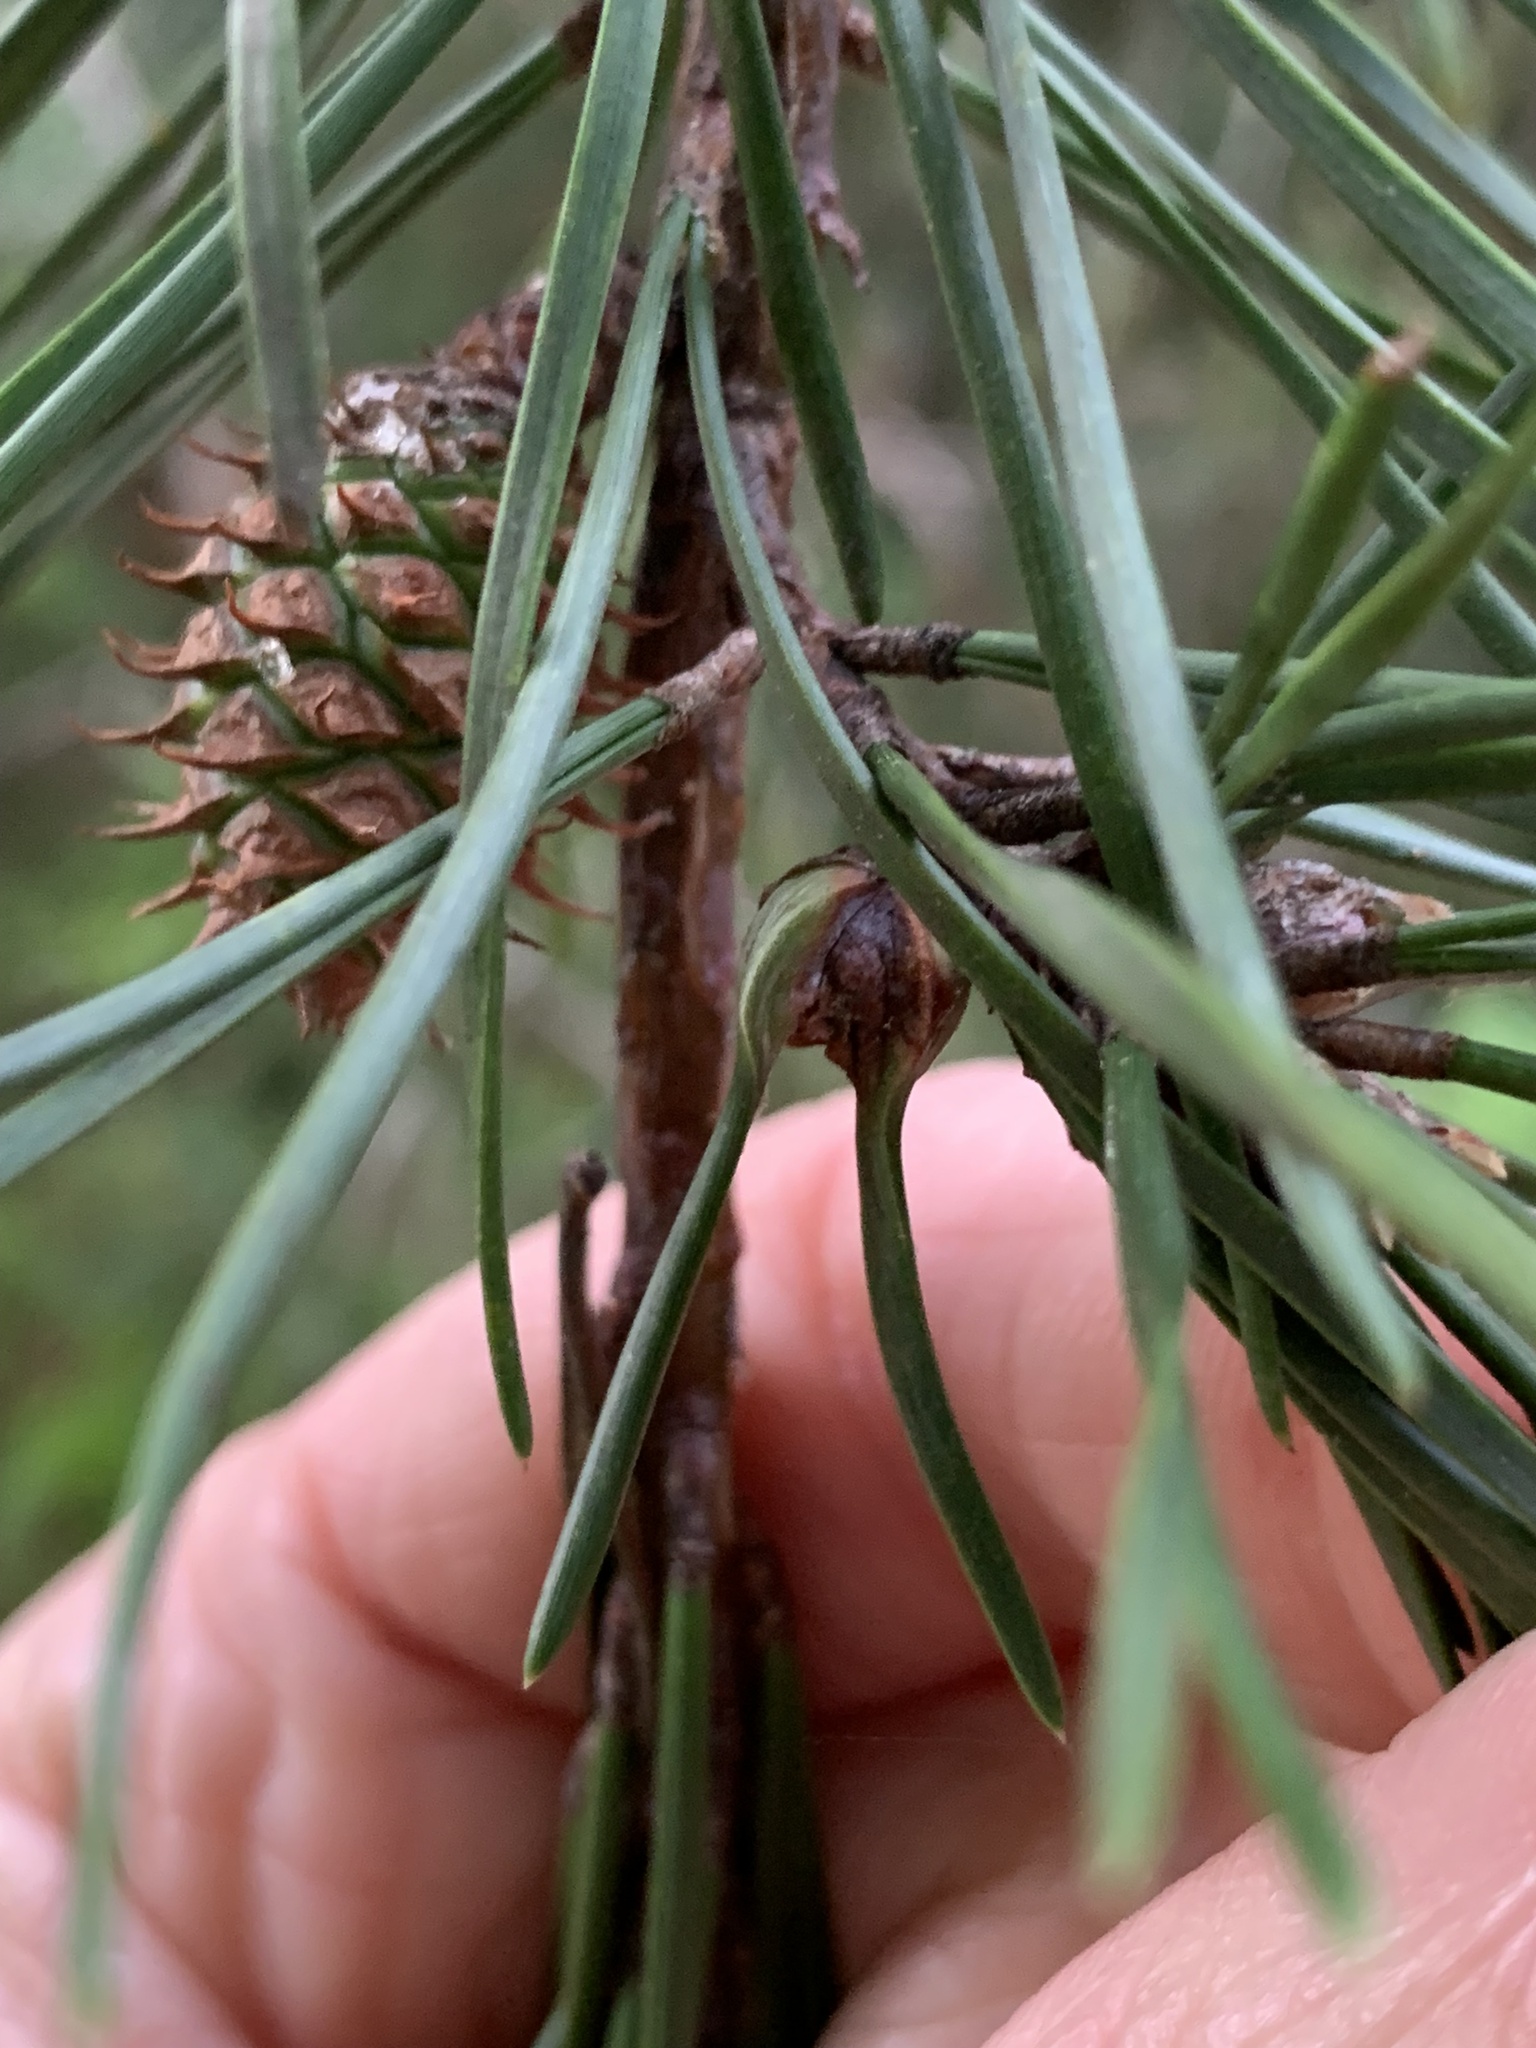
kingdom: Animalia
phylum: Arthropoda
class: Insecta
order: Diptera
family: Cecidomyiidae
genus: Thecodiplosis
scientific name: Thecodiplosis brachynteroides
